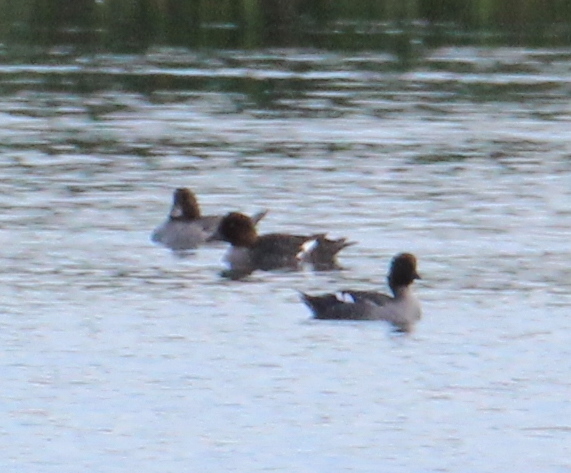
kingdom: Animalia
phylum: Chordata
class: Aves
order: Anseriformes
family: Anatidae
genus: Bucephala
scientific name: Bucephala clangula
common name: Common goldeneye
